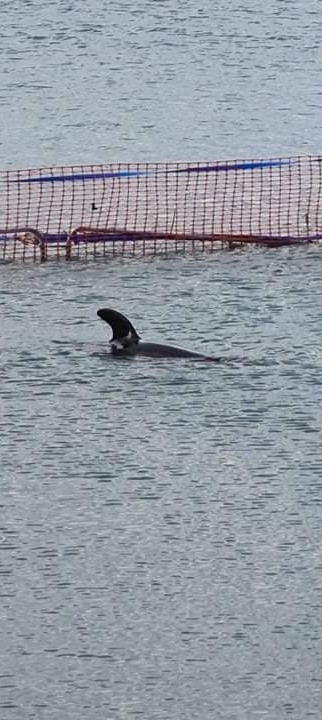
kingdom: Animalia
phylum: Chordata
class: Mammalia
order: Cetacea
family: Delphinidae
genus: Orcinus
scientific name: Orcinus orca
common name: Killer whale
